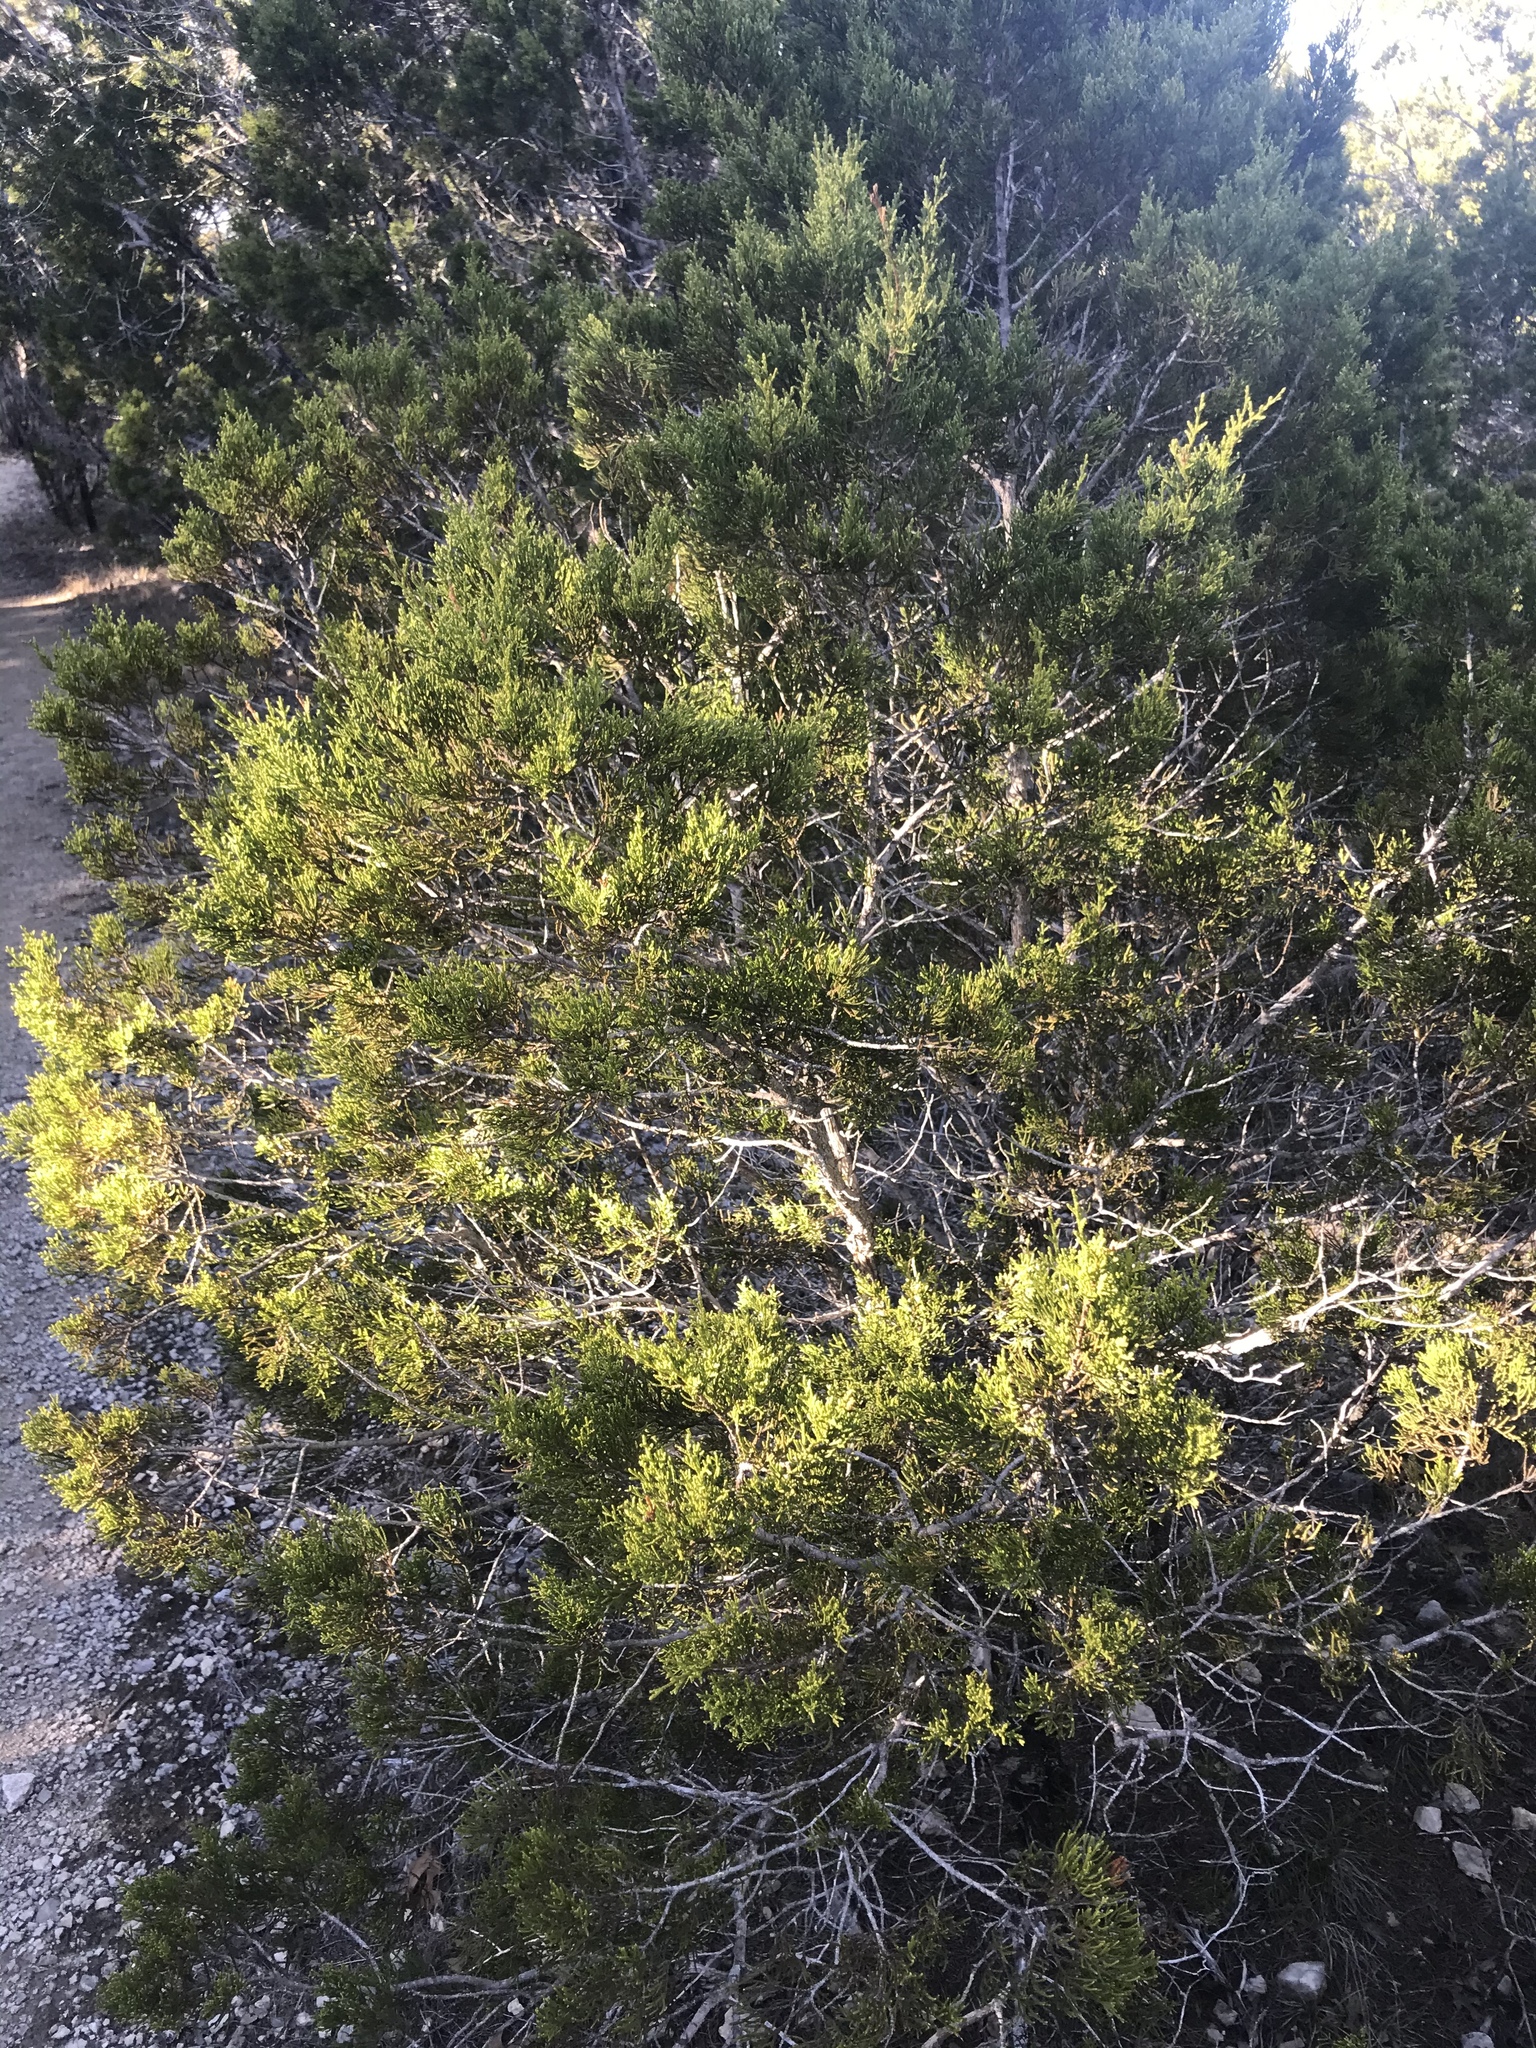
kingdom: Plantae
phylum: Tracheophyta
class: Pinopsida
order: Pinales
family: Cupressaceae
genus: Juniperus
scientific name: Juniperus ashei
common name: Mexican juniper
